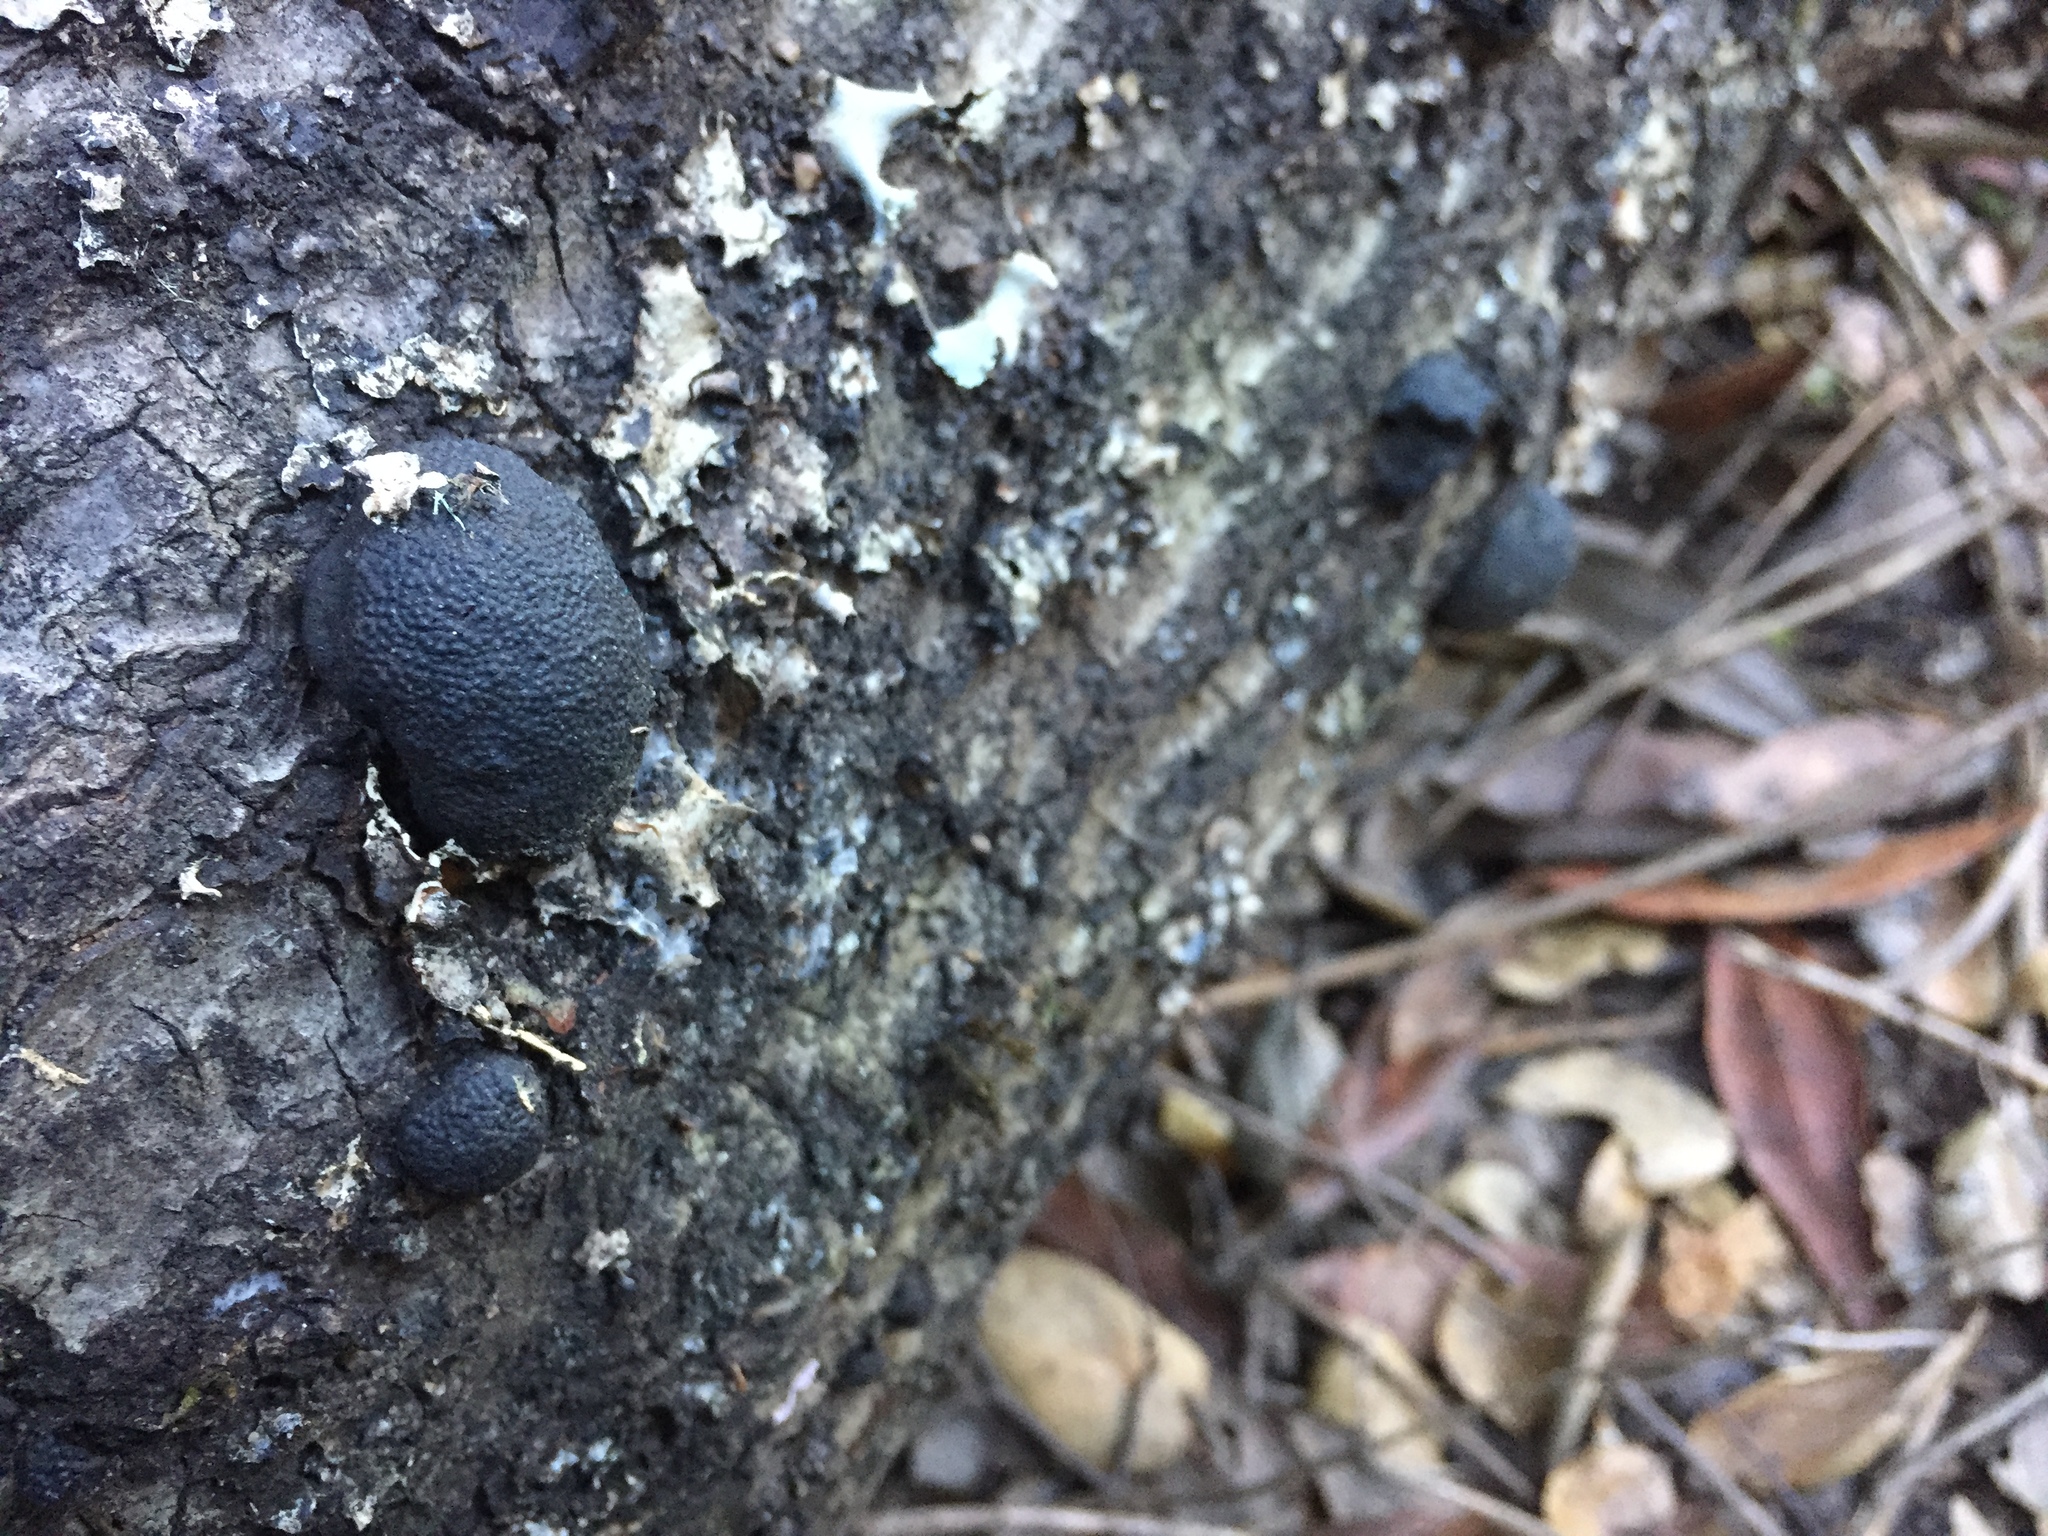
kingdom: Fungi
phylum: Ascomycota
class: Sordariomycetes
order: Xylariales
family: Hypoxylaceae
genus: Annulohypoxylon
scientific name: Annulohypoxylon thouarsianum
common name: Cramp balls
